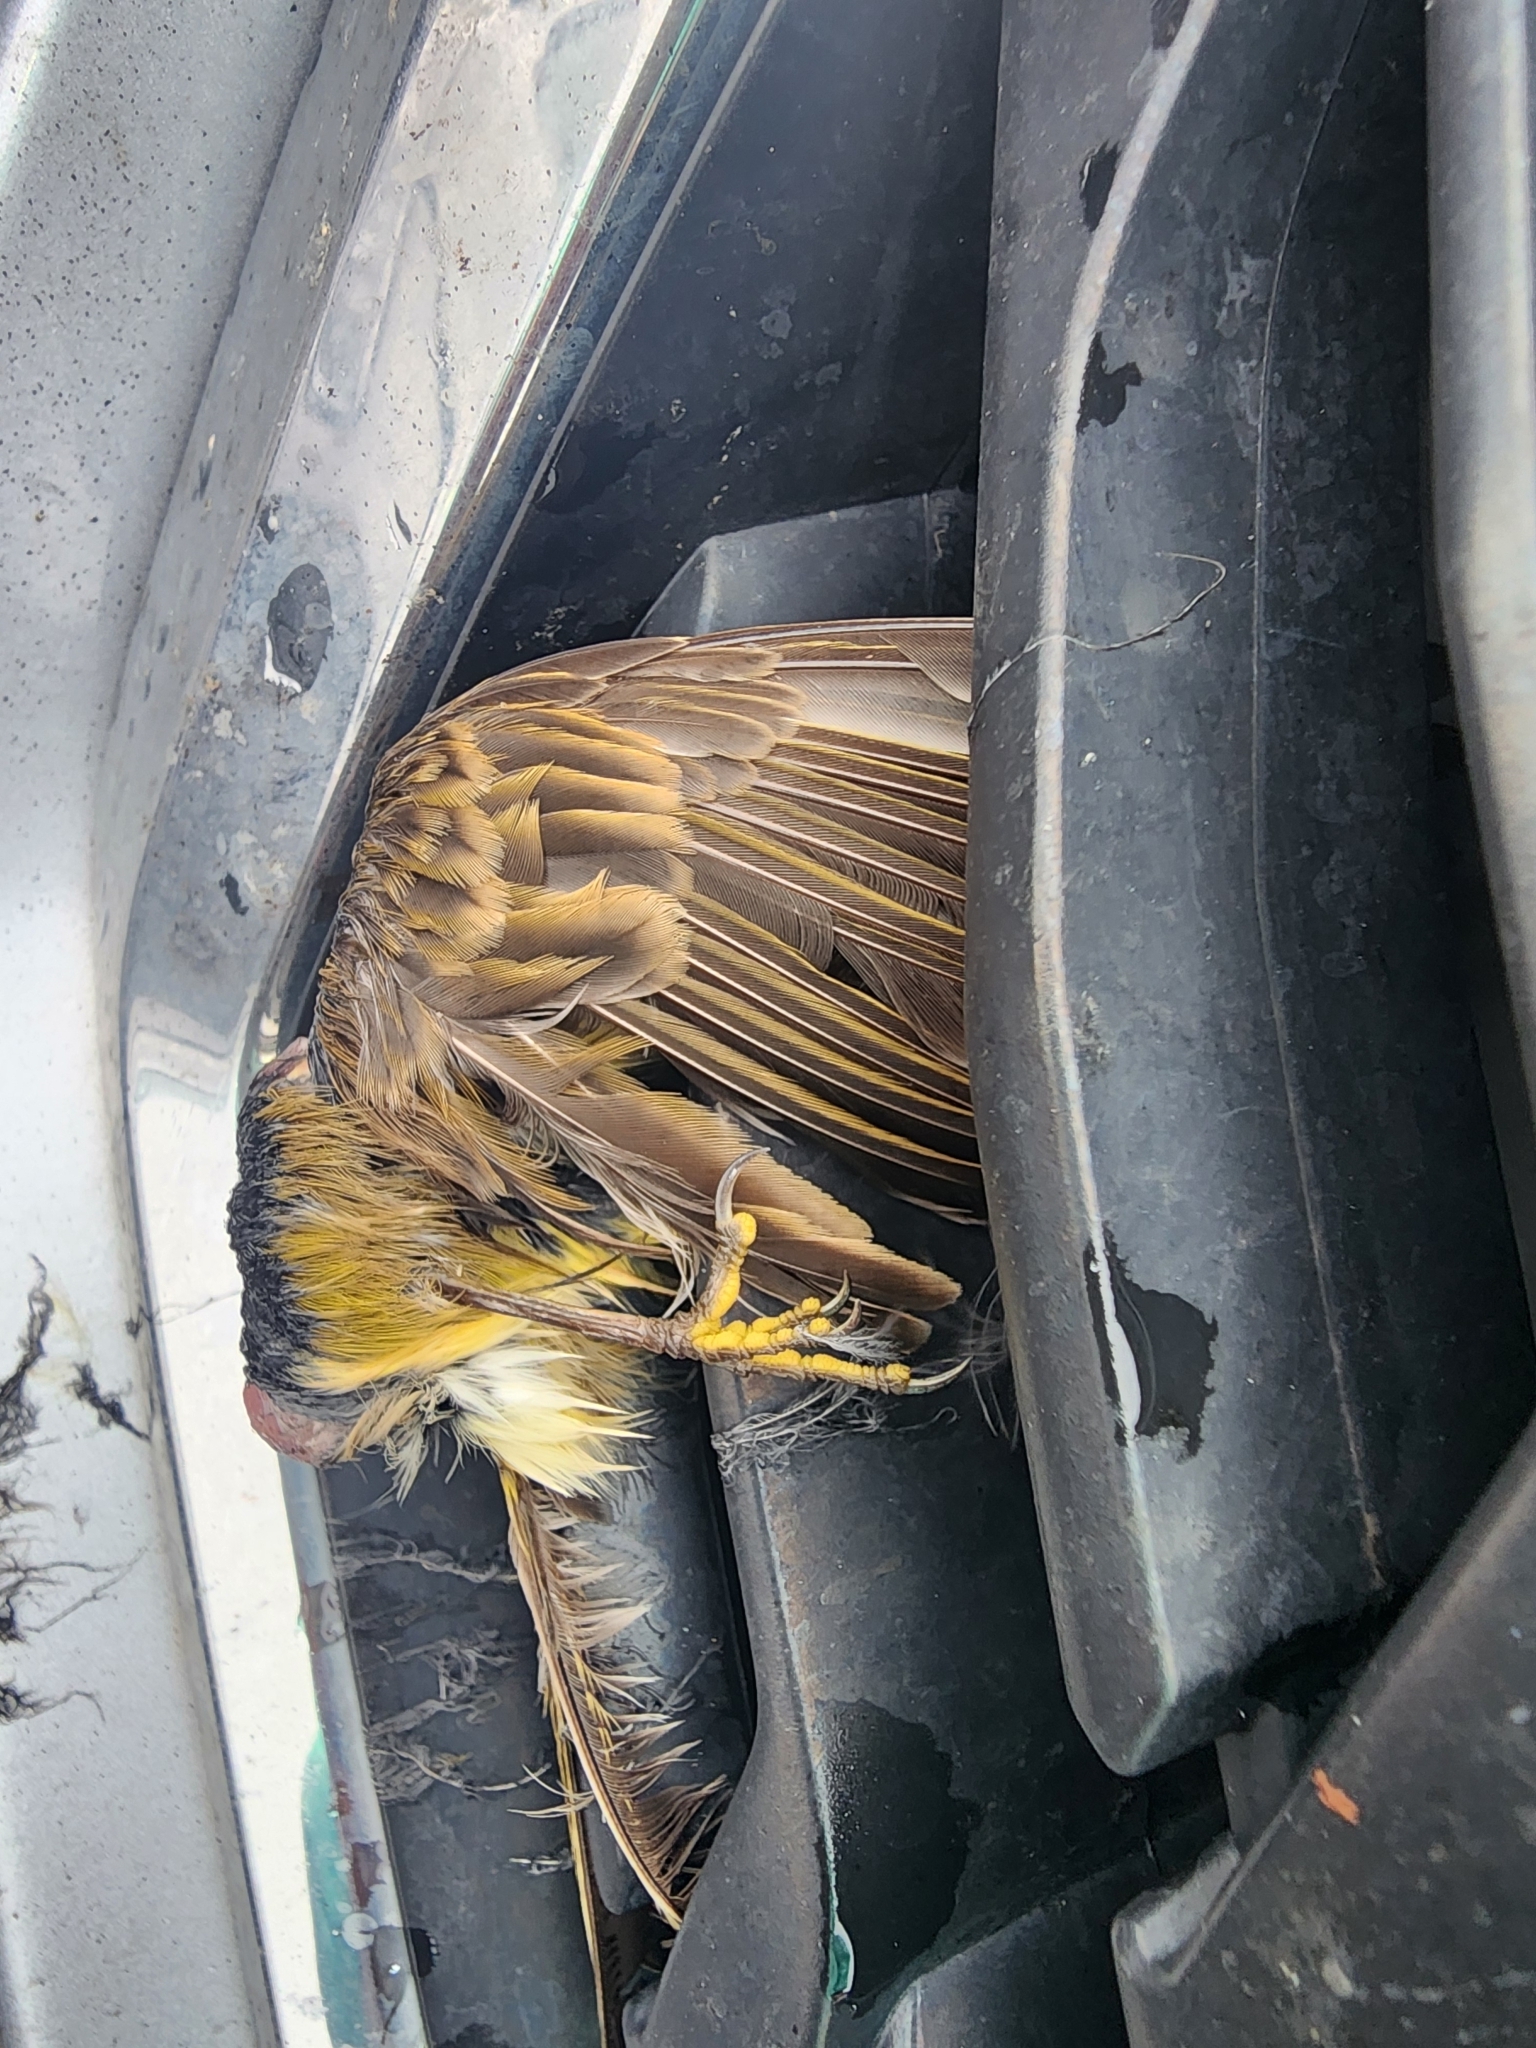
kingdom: Animalia
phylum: Chordata
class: Aves
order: Passeriformes
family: Parulidae
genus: Setophaga
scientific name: Setophaga palmarum
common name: Palm warbler
